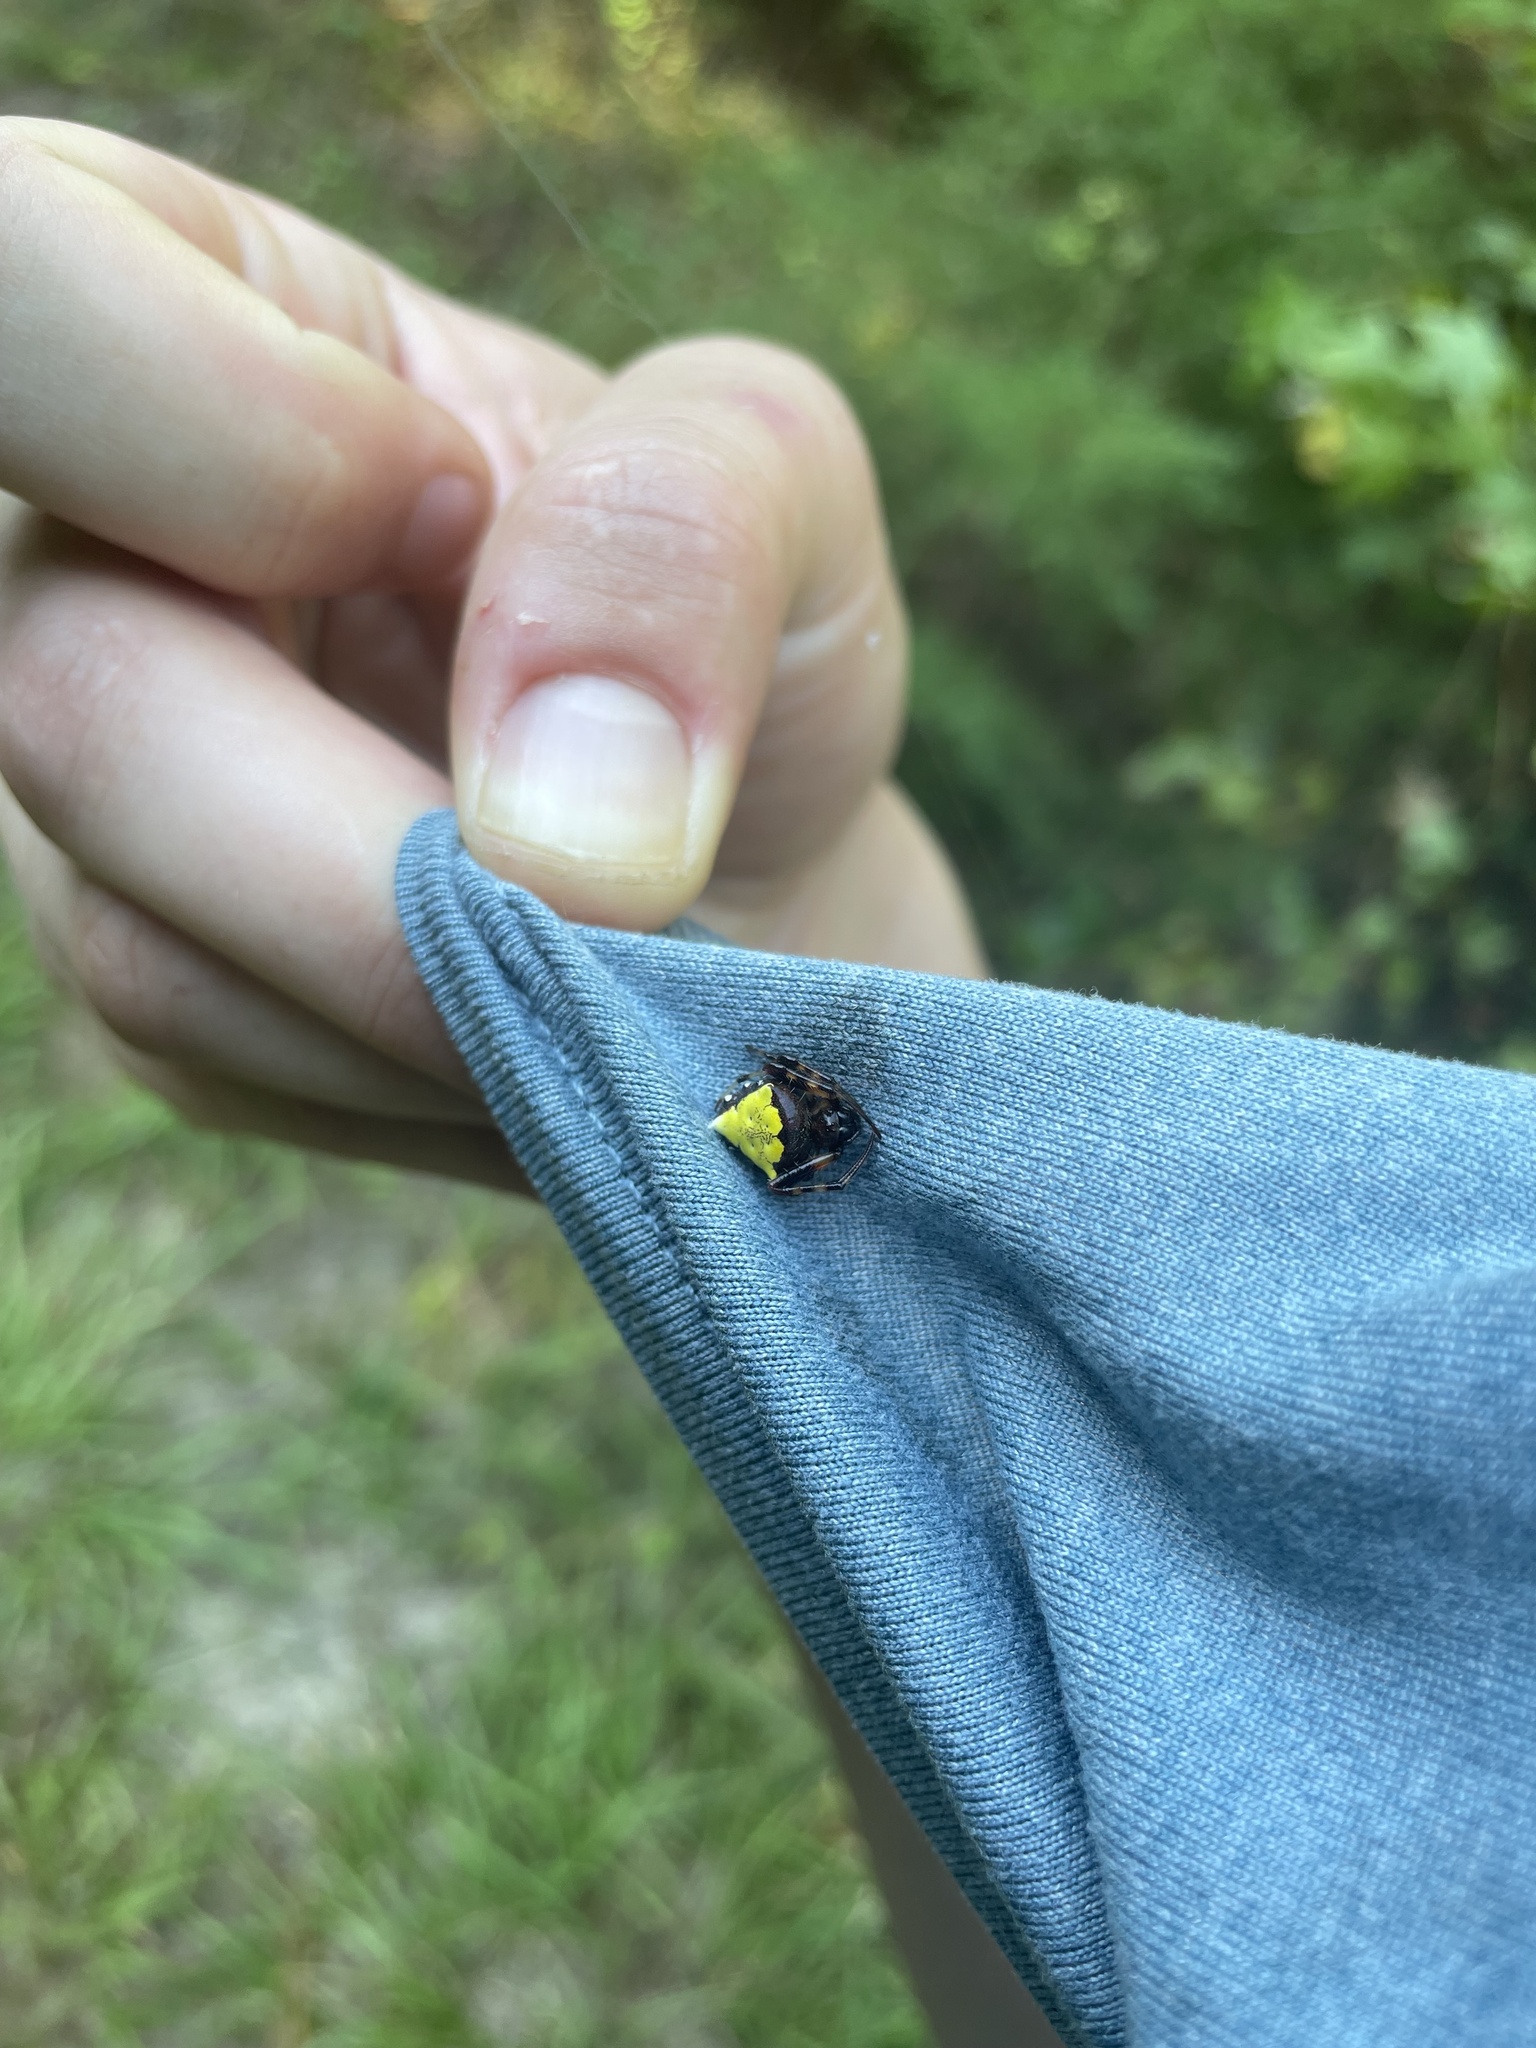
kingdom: Animalia
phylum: Arthropoda
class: Arachnida
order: Araneae
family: Araneidae
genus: Verrucosa
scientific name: Verrucosa arenata
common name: Orb weavers
